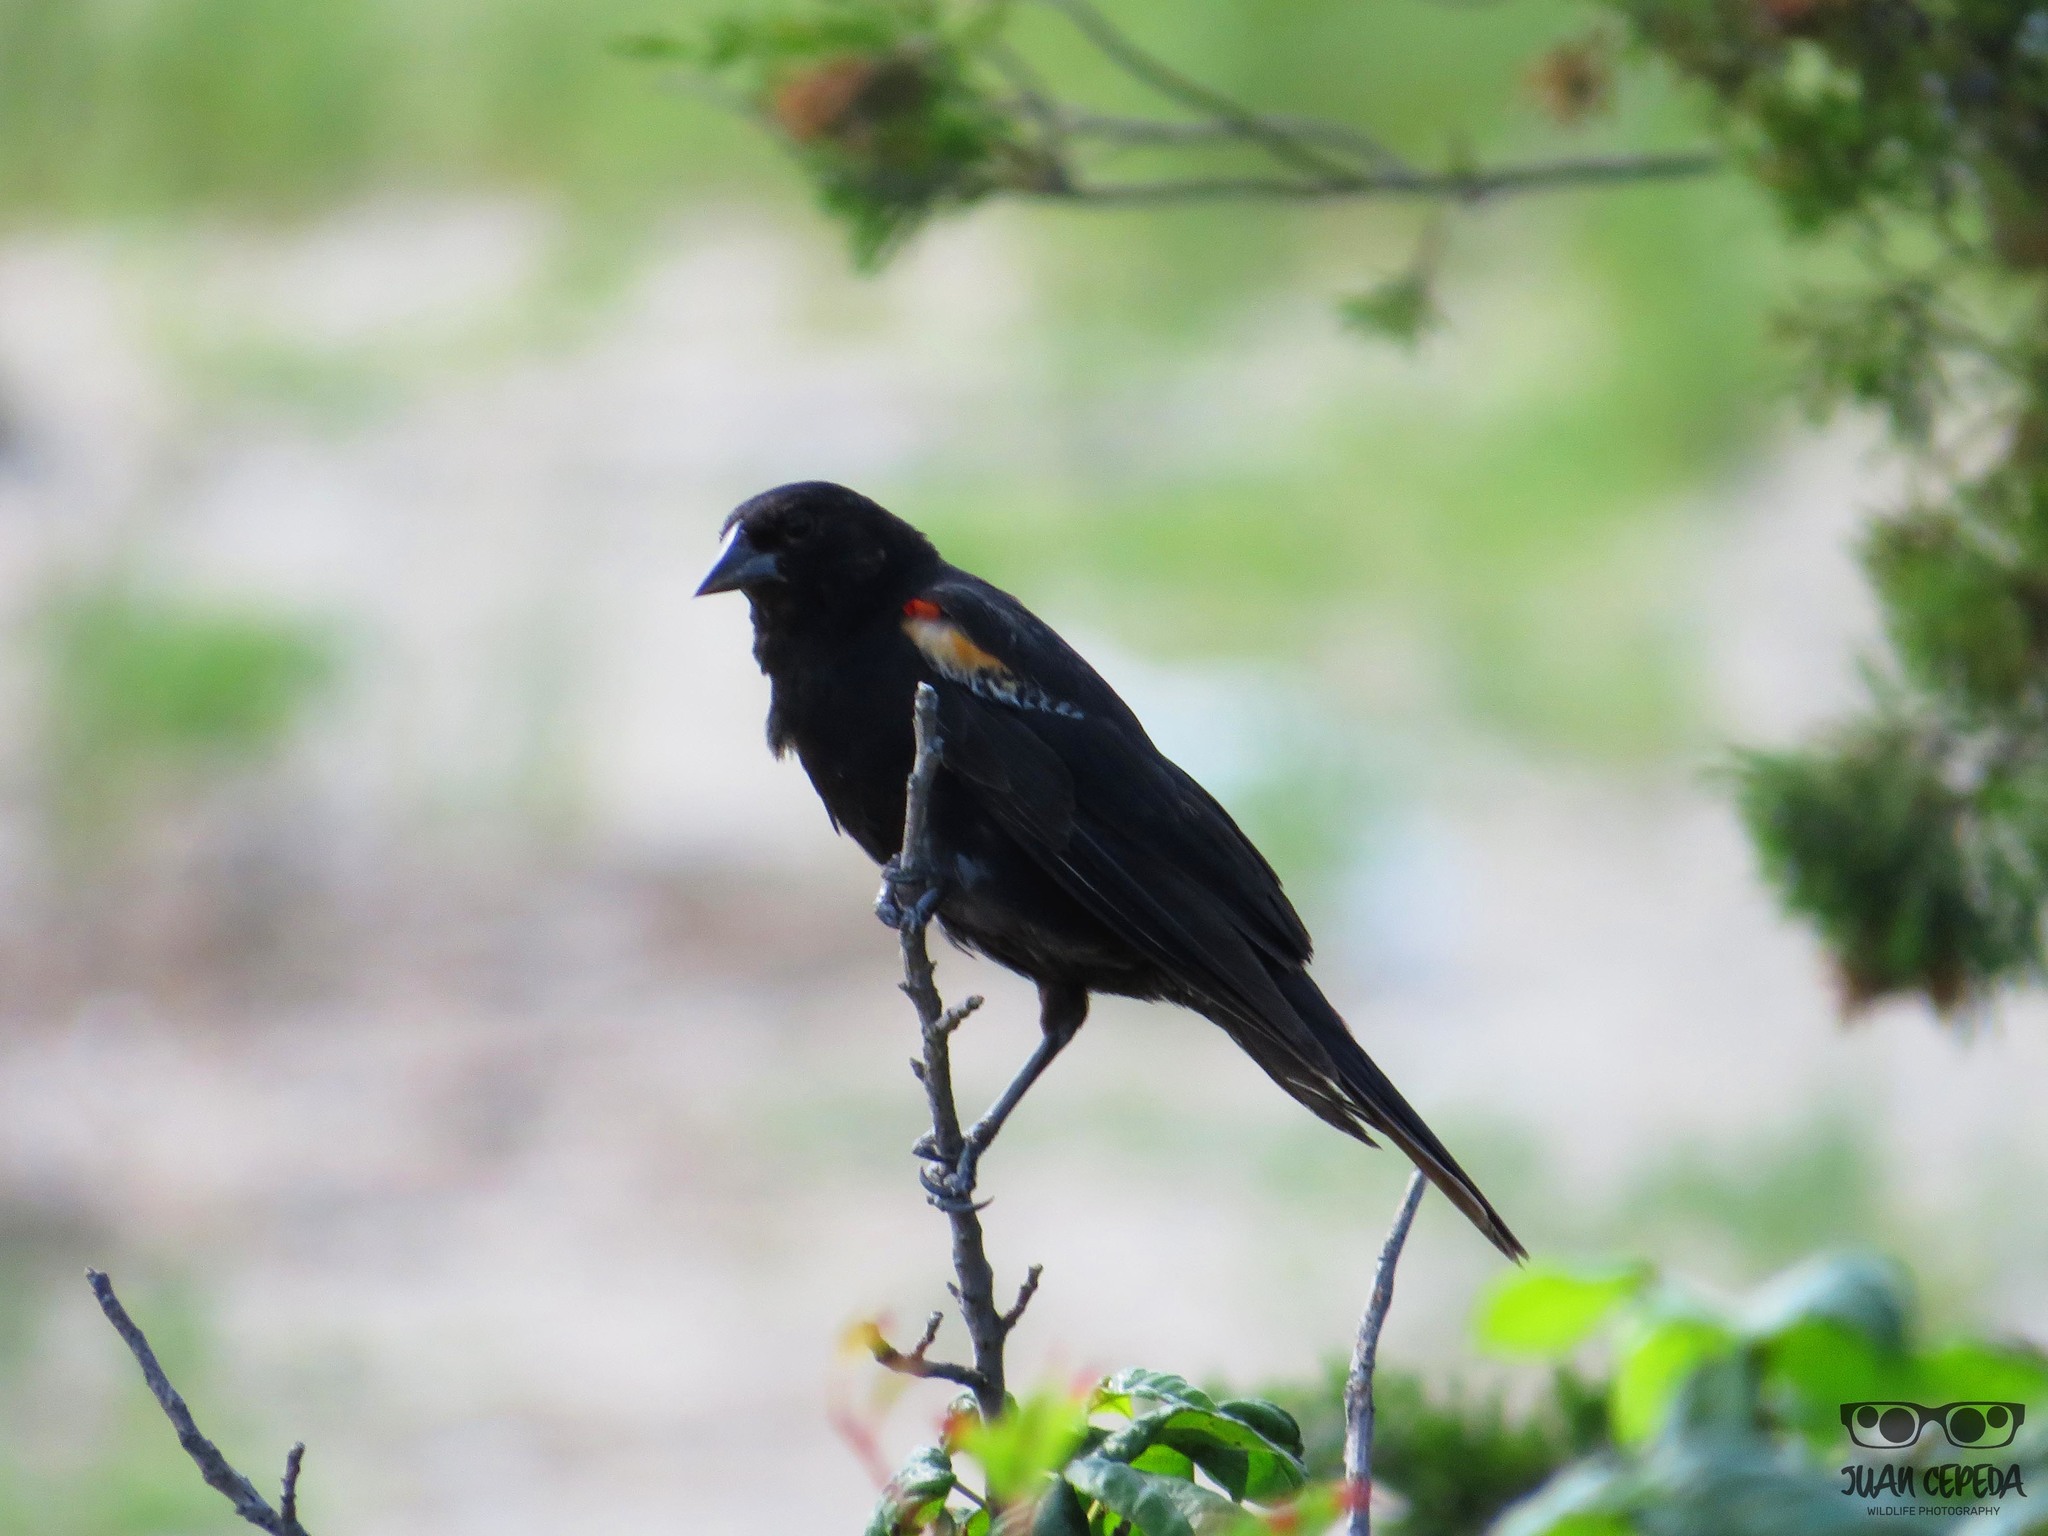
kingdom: Animalia
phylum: Chordata
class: Aves
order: Passeriformes
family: Icteridae
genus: Agelaius
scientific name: Agelaius phoeniceus
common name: Red-winged blackbird
